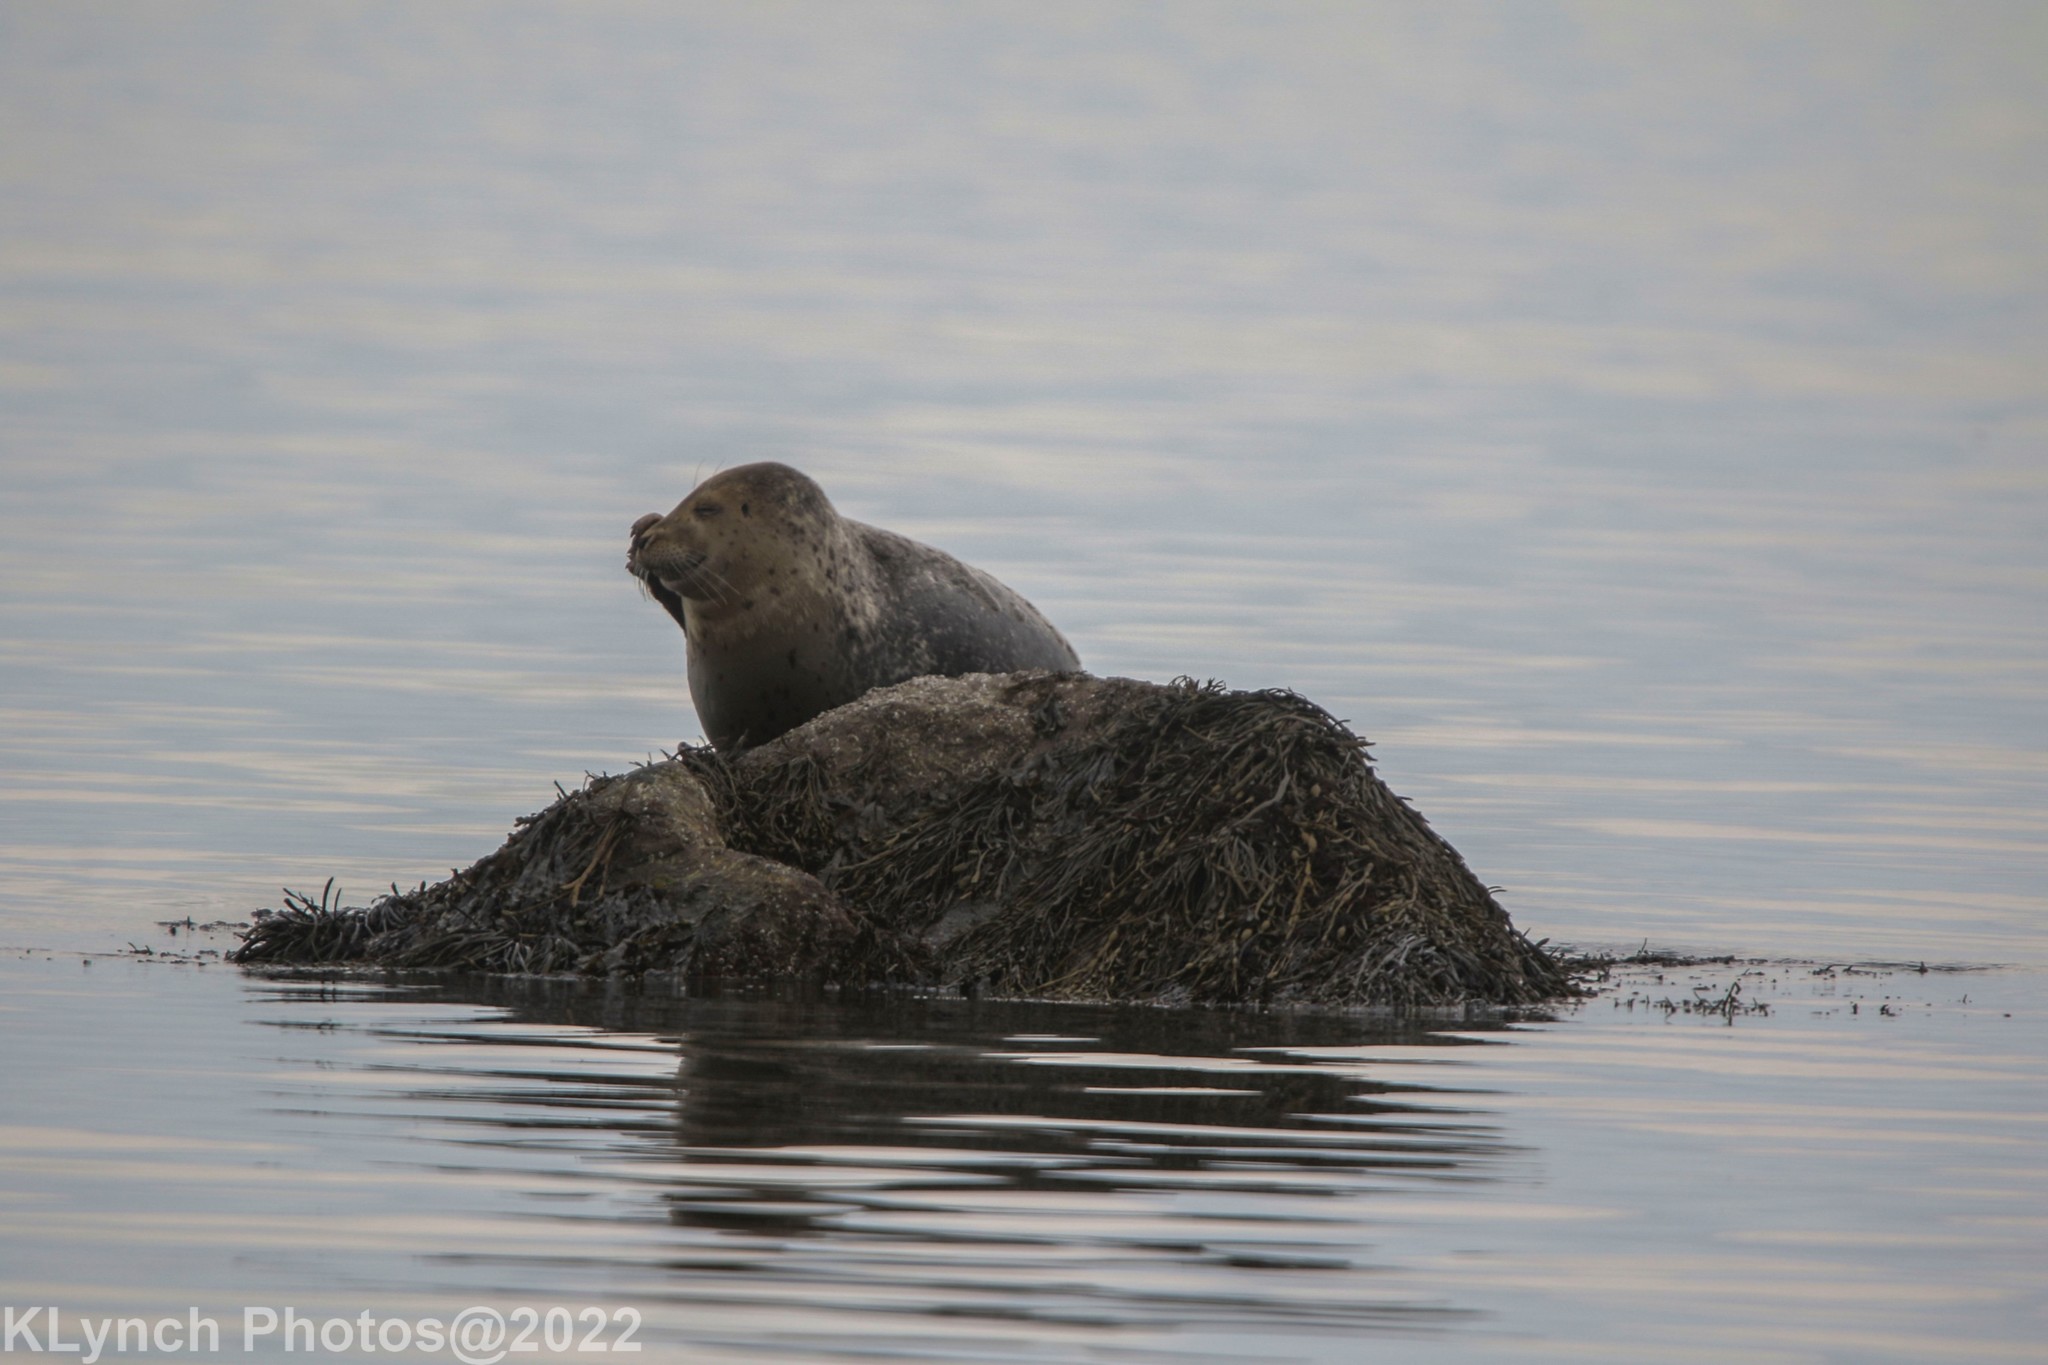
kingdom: Animalia
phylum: Chordata
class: Mammalia
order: Carnivora
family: Phocidae
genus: Phoca
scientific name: Phoca vitulina
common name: Harbor seal
